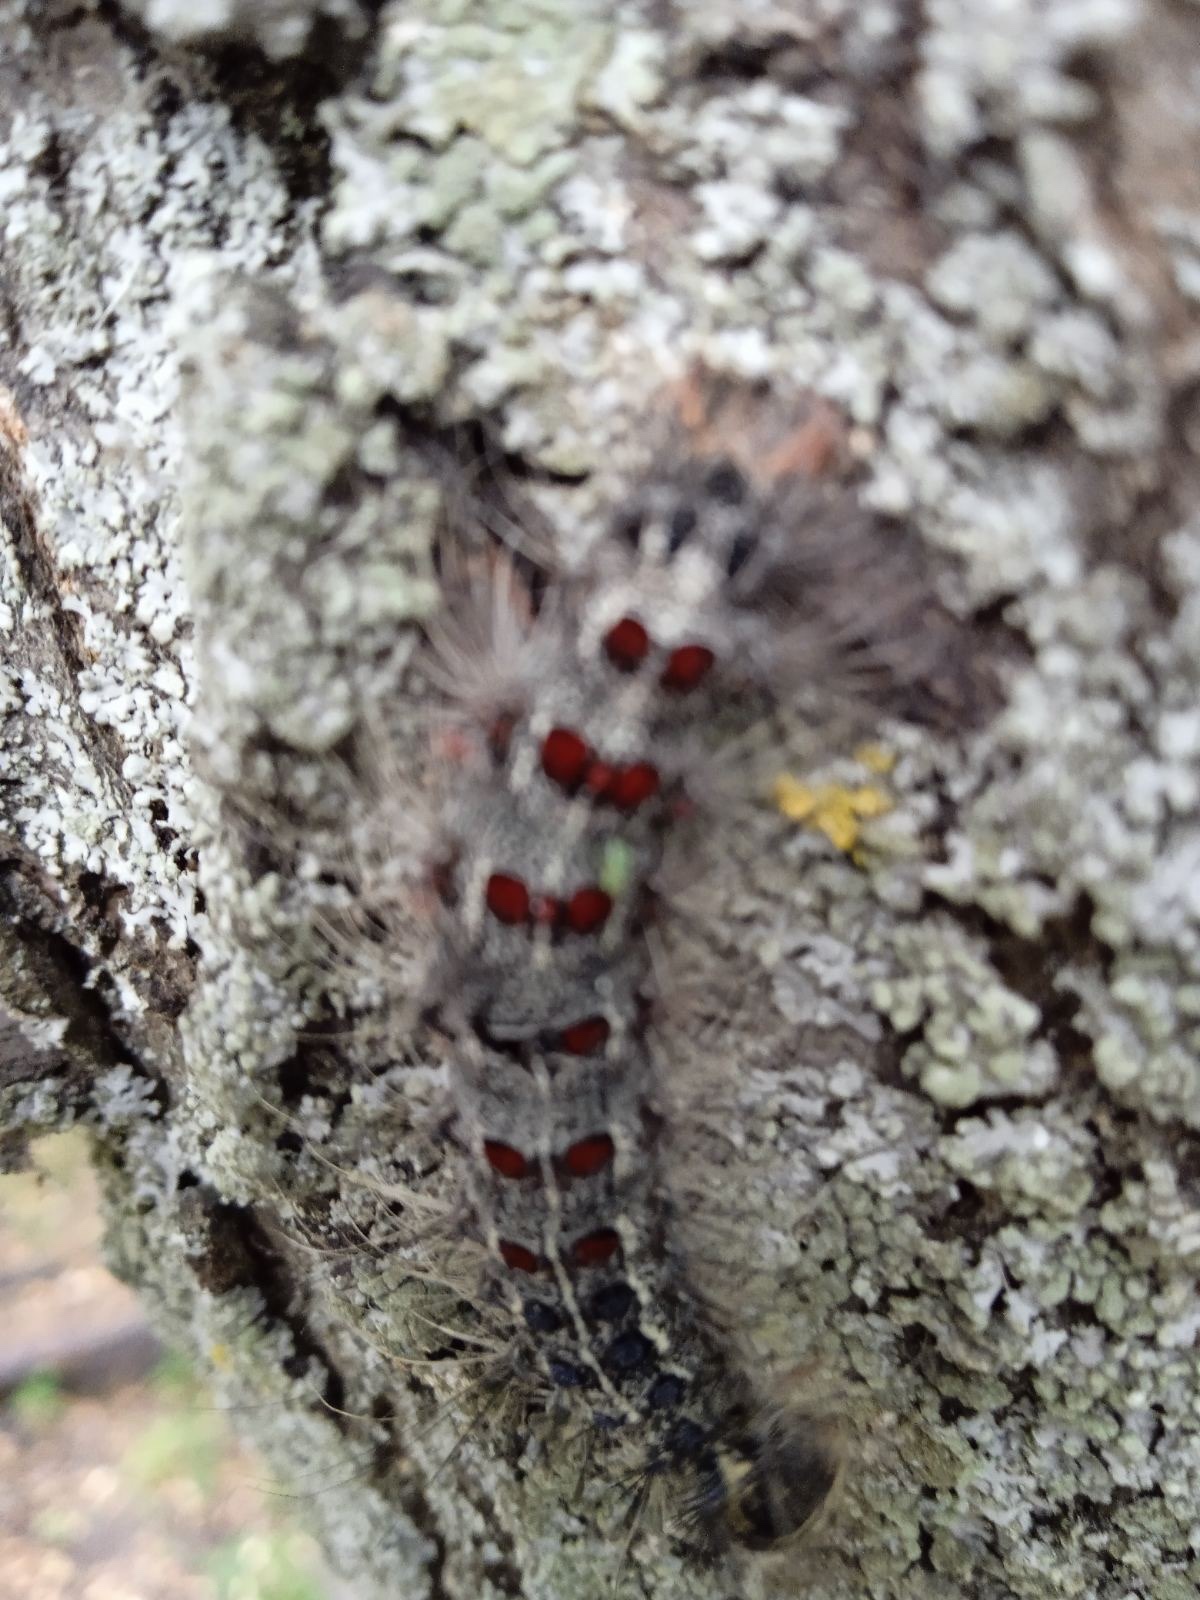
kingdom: Animalia
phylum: Arthropoda
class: Insecta
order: Lepidoptera
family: Erebidae
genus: Lymantria
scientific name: Lymantria dispar
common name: Gypsy moth
